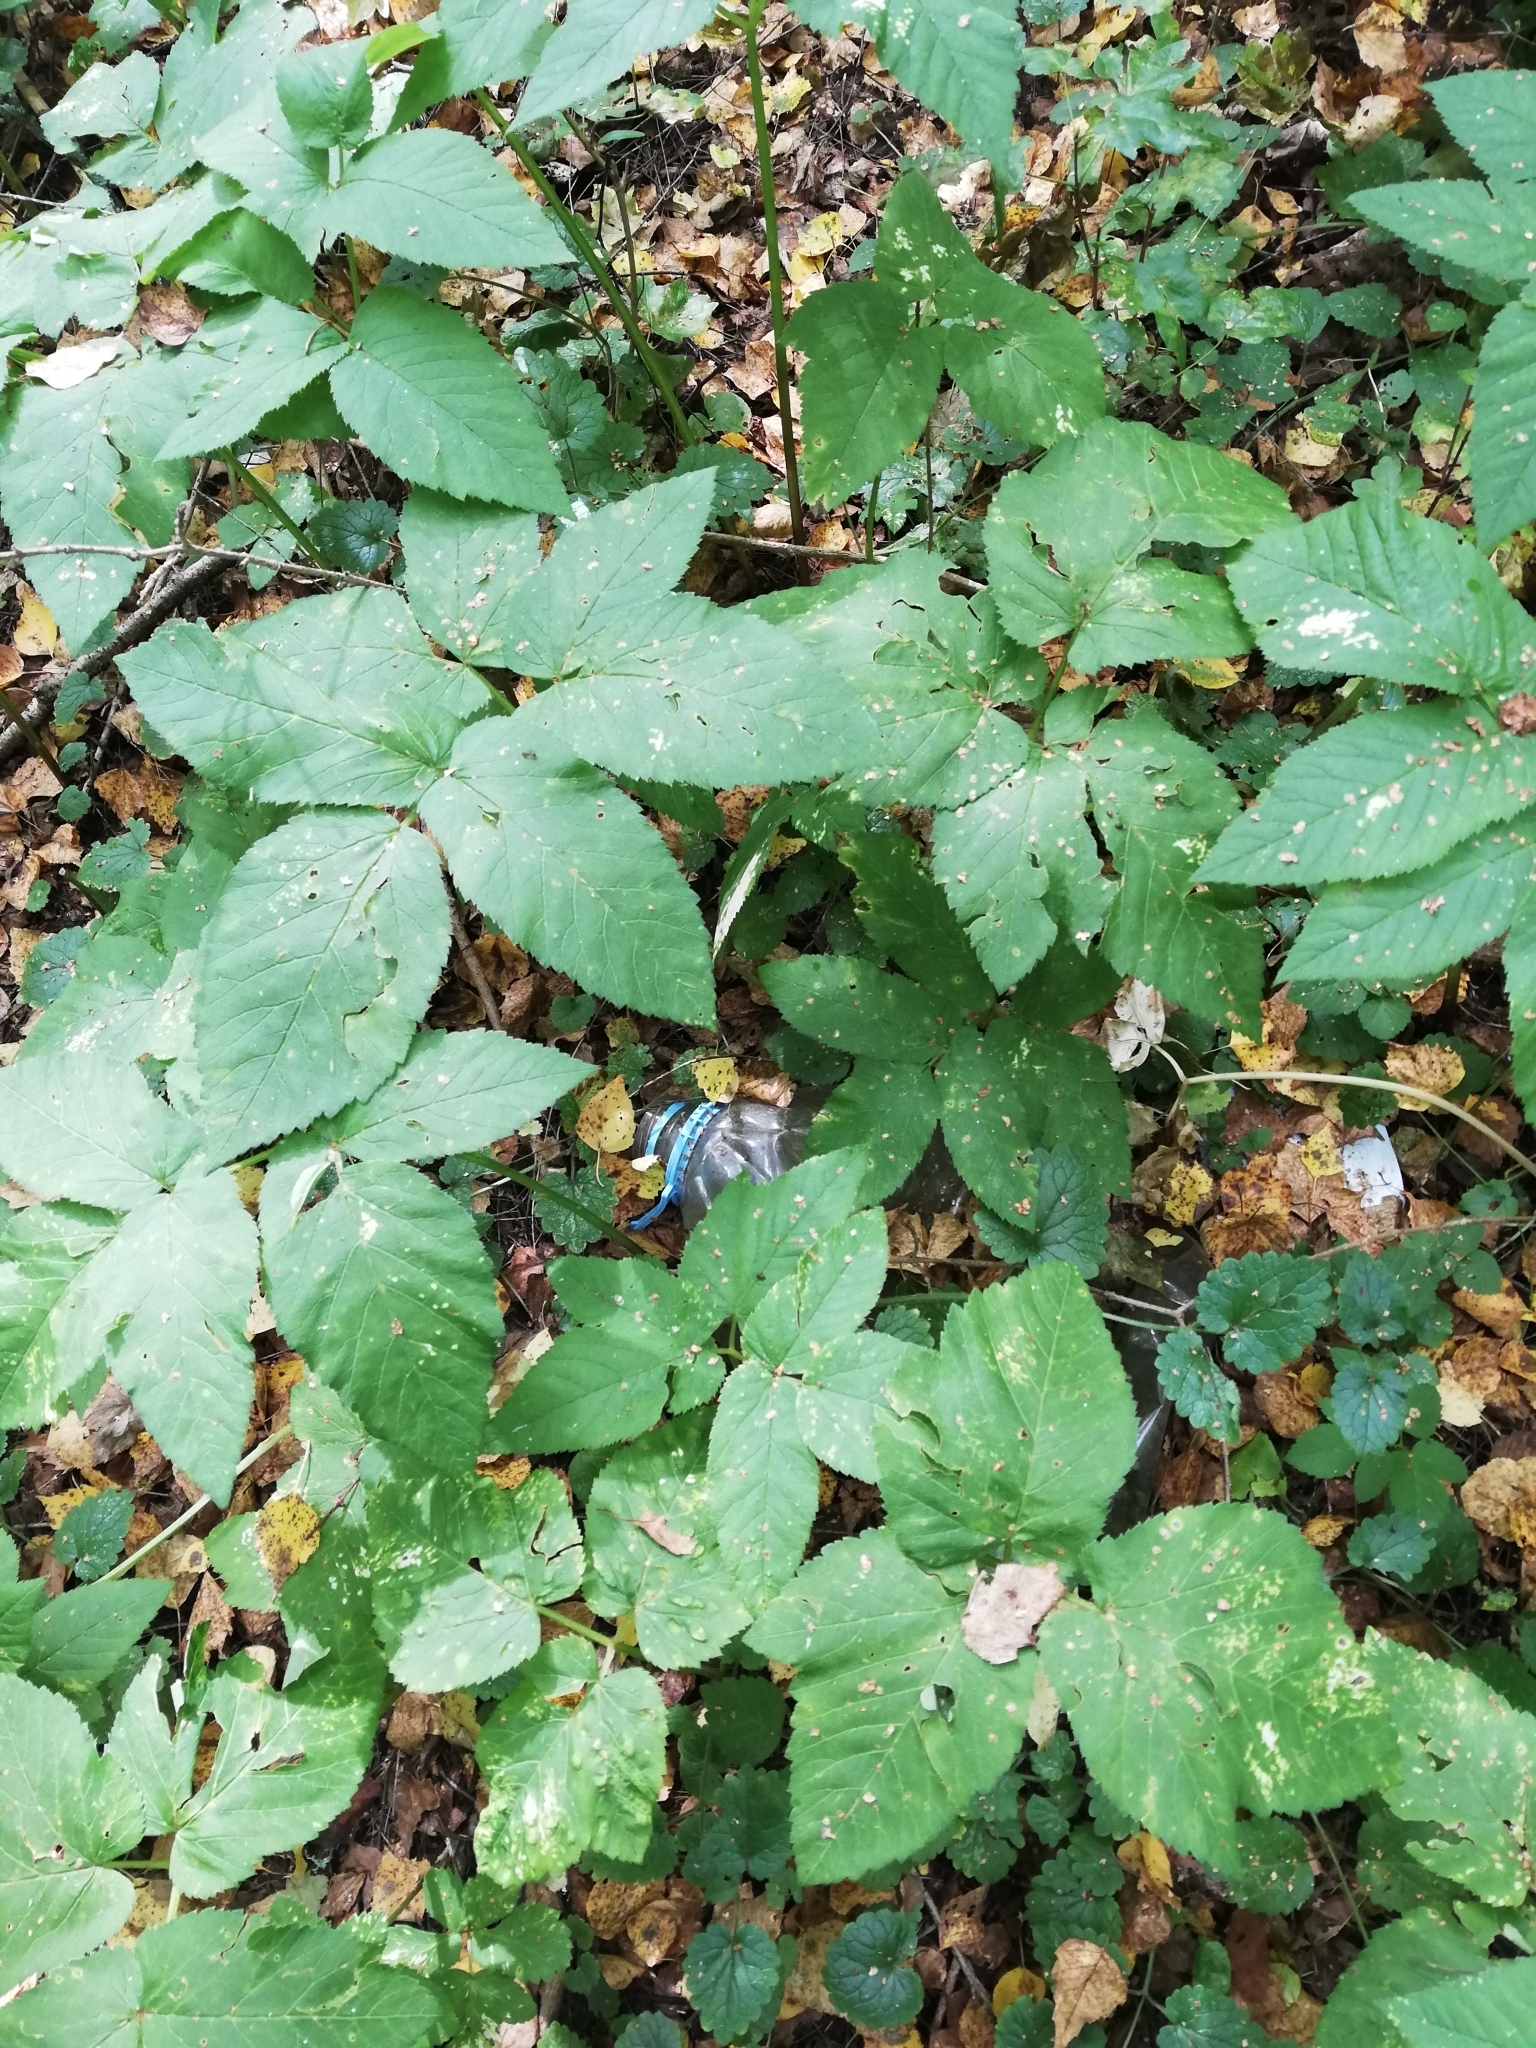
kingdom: Plantae
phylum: Tracheophyta
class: Magnoliopsida
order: Apiales
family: Apiaceae
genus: Aegopodium
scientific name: Aegopodium podagraria
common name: Ground-elder
